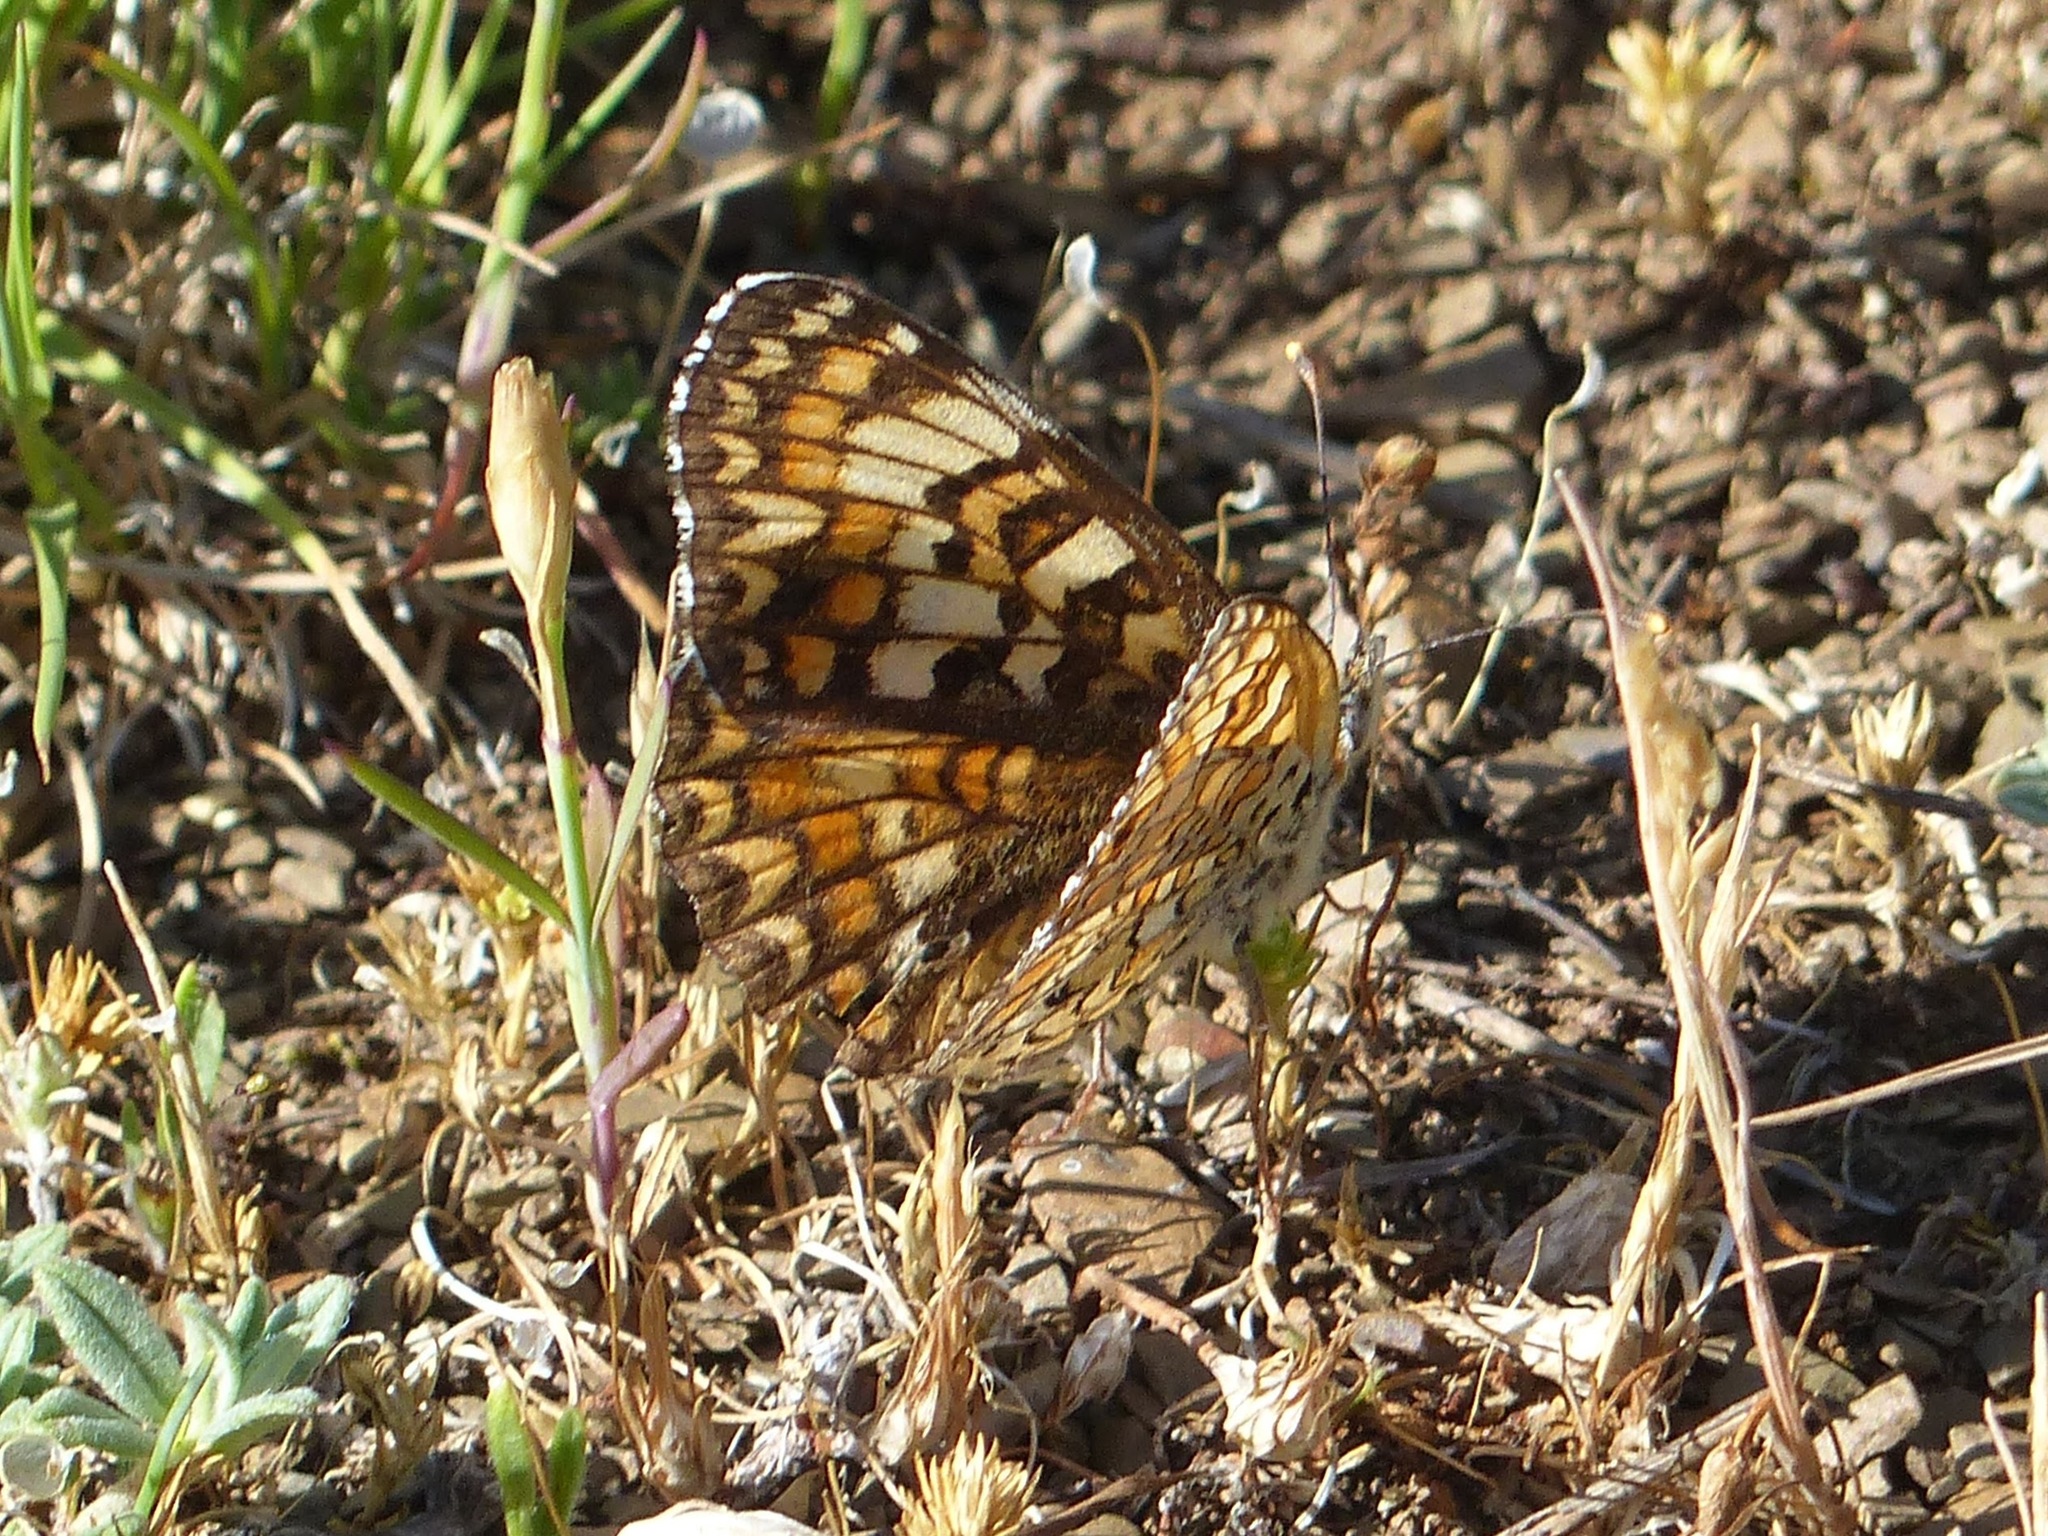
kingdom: Animalia
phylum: Arthropoda
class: Insecta
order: Lepidoptera
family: Nymphalidae
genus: Melitaea
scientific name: Melitaea phoebe
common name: Knapweed fritillary
